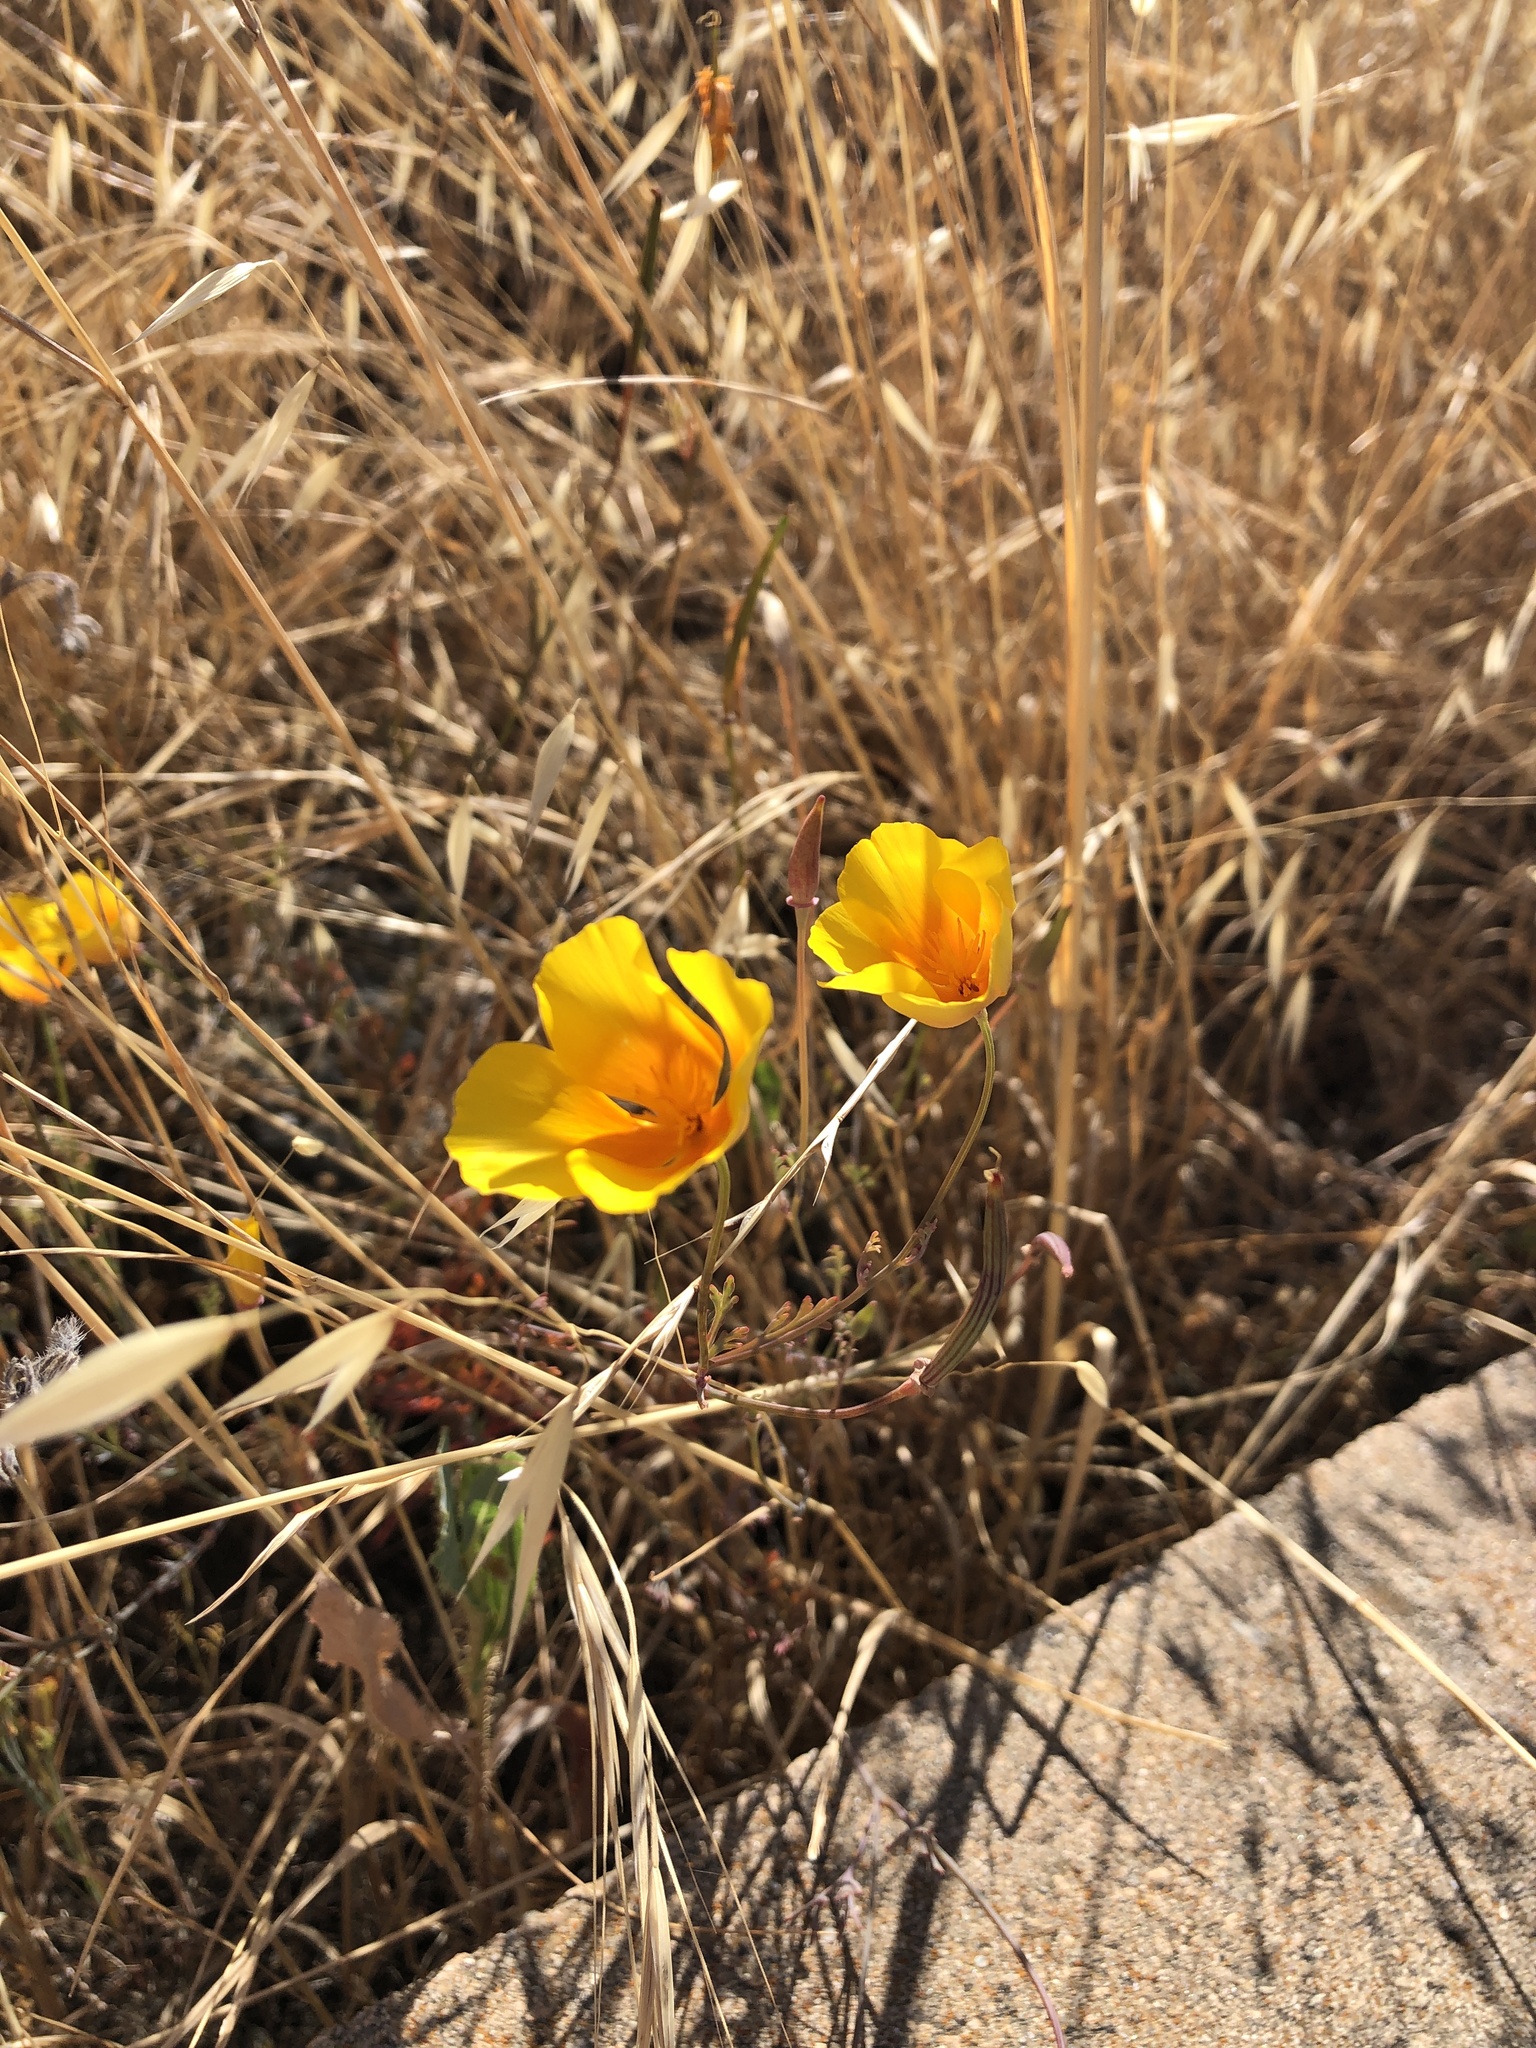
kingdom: Plantae
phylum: Tracheophyta
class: Magnoliopsida
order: Ranunculales
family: Papaveraceae
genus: Eschscholzia
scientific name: Eschscholzia californica
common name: California poppy
